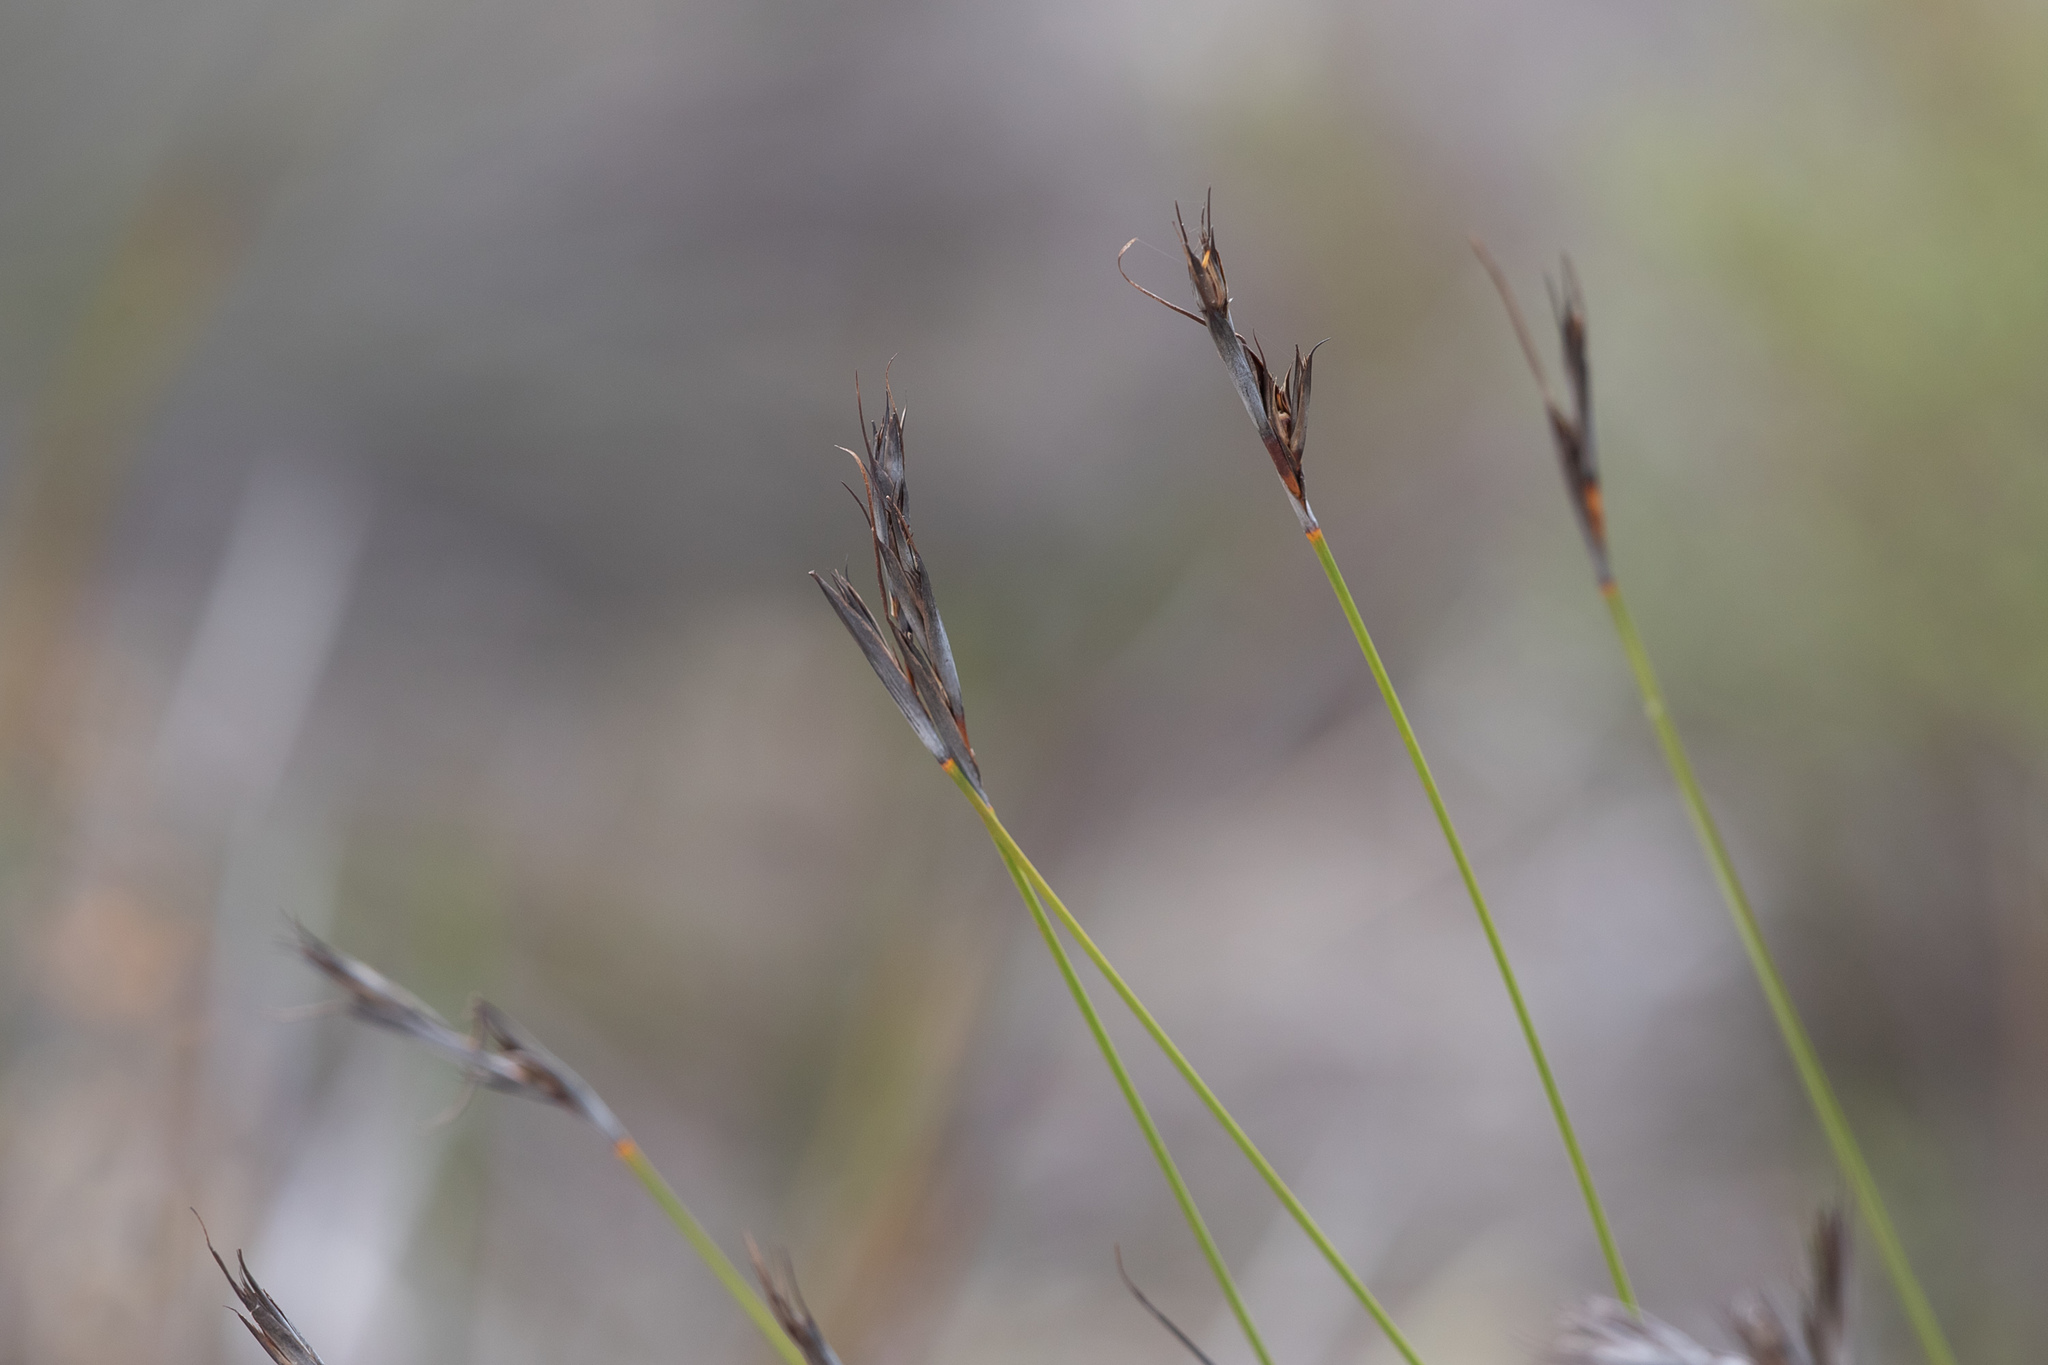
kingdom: Plantae
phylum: Tracheophyta
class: Liliopsida
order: Poales
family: Cyperaceae
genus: Lepidosperma
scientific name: Lepidosperma carphoides
